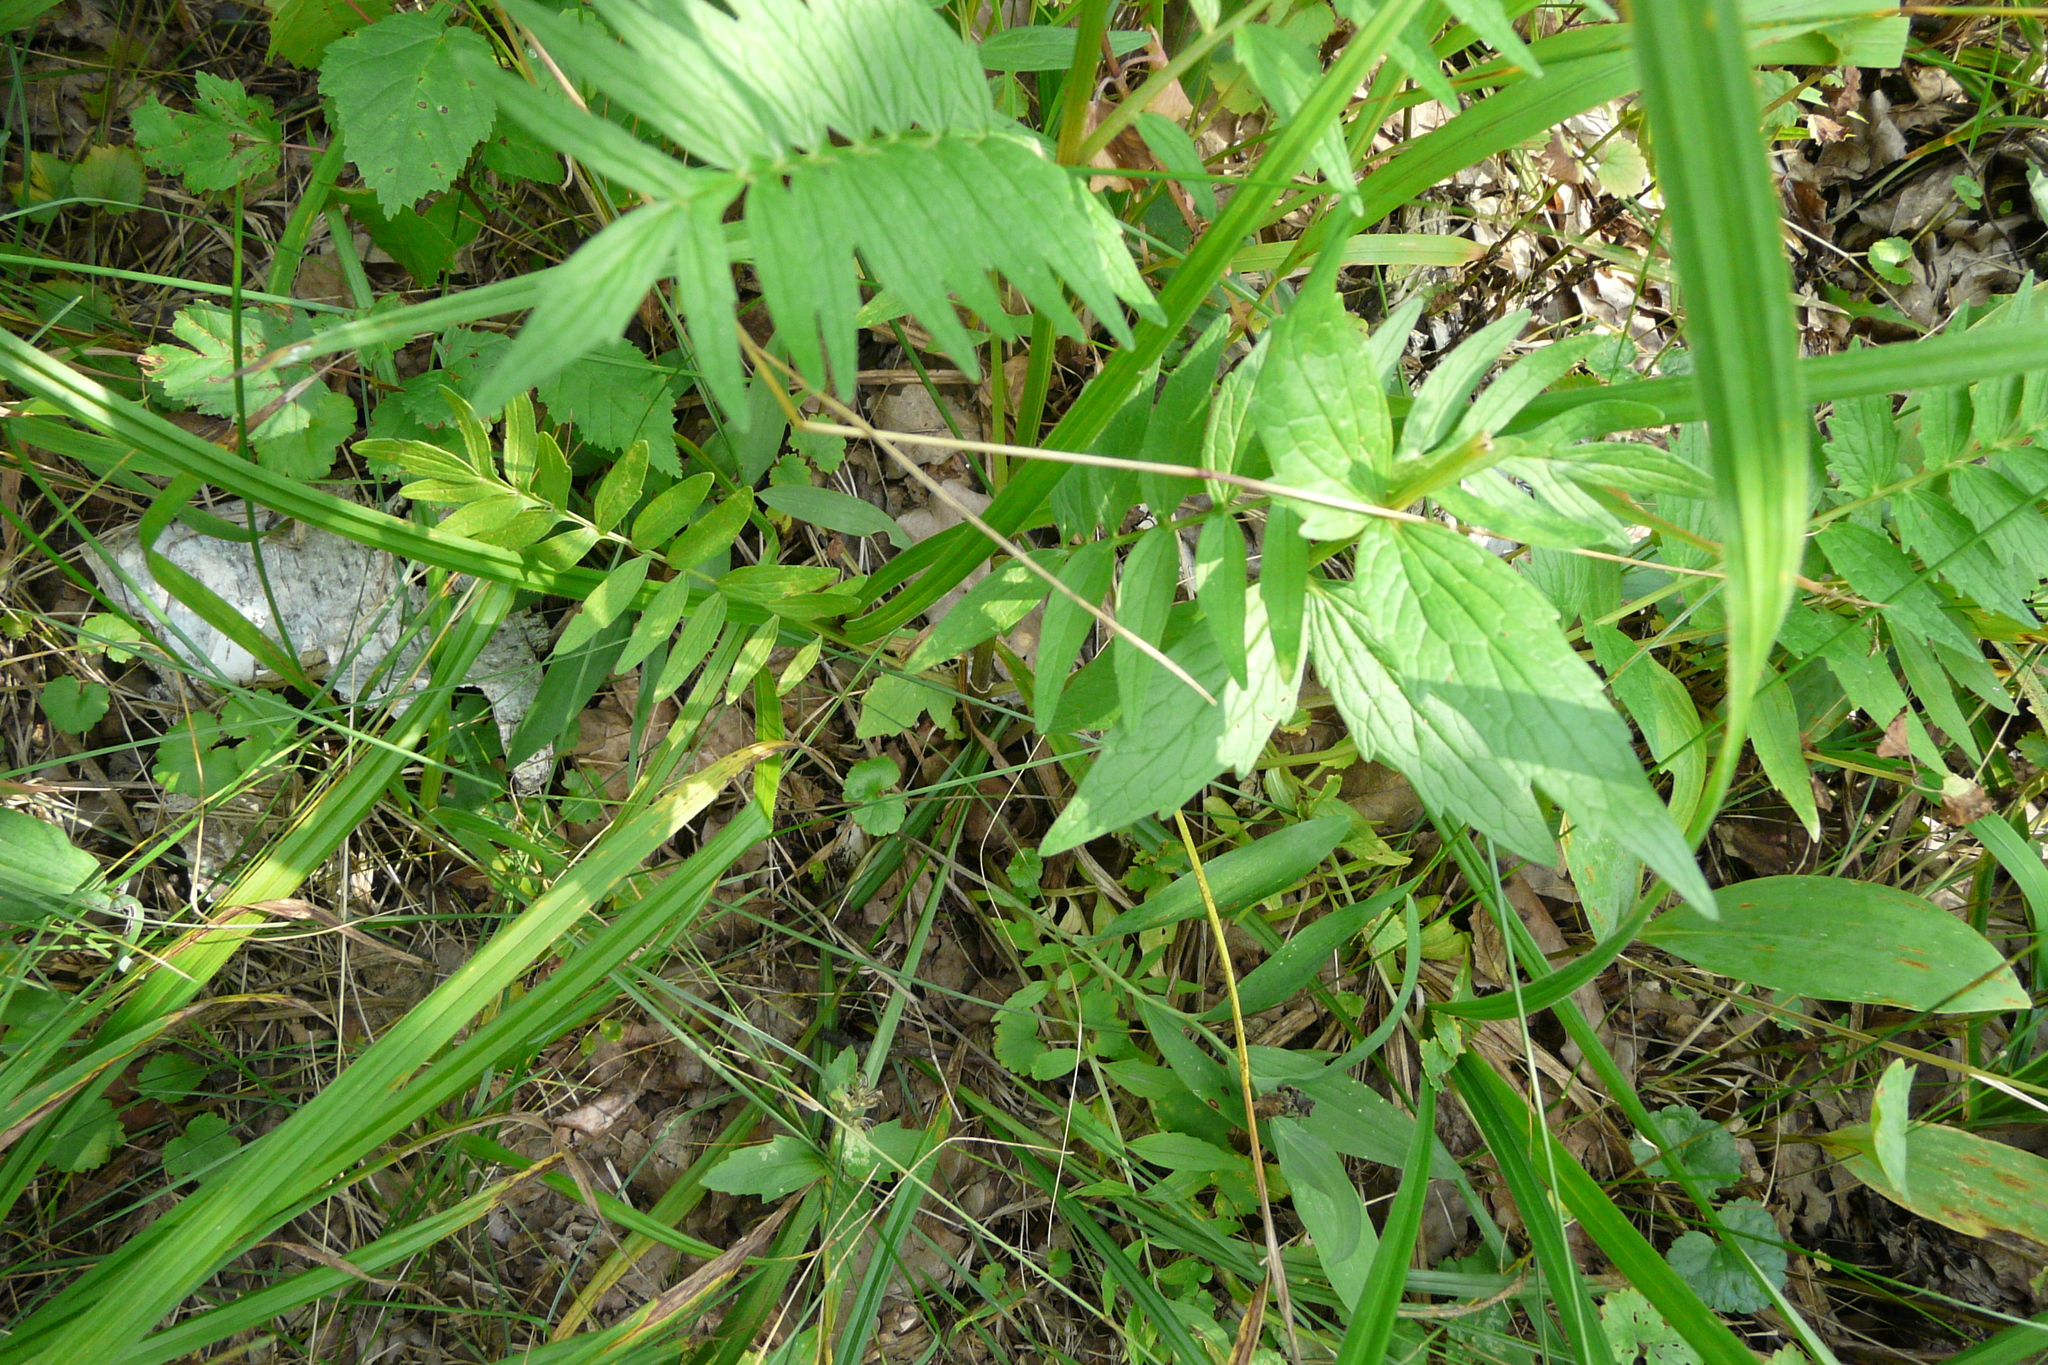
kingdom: Plantae
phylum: Tracheophyta
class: Magnoliopsida
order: Dipsacales
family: Caprifoliaceae
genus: Valeriana
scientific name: Valeriana officinalis
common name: Common valerian
